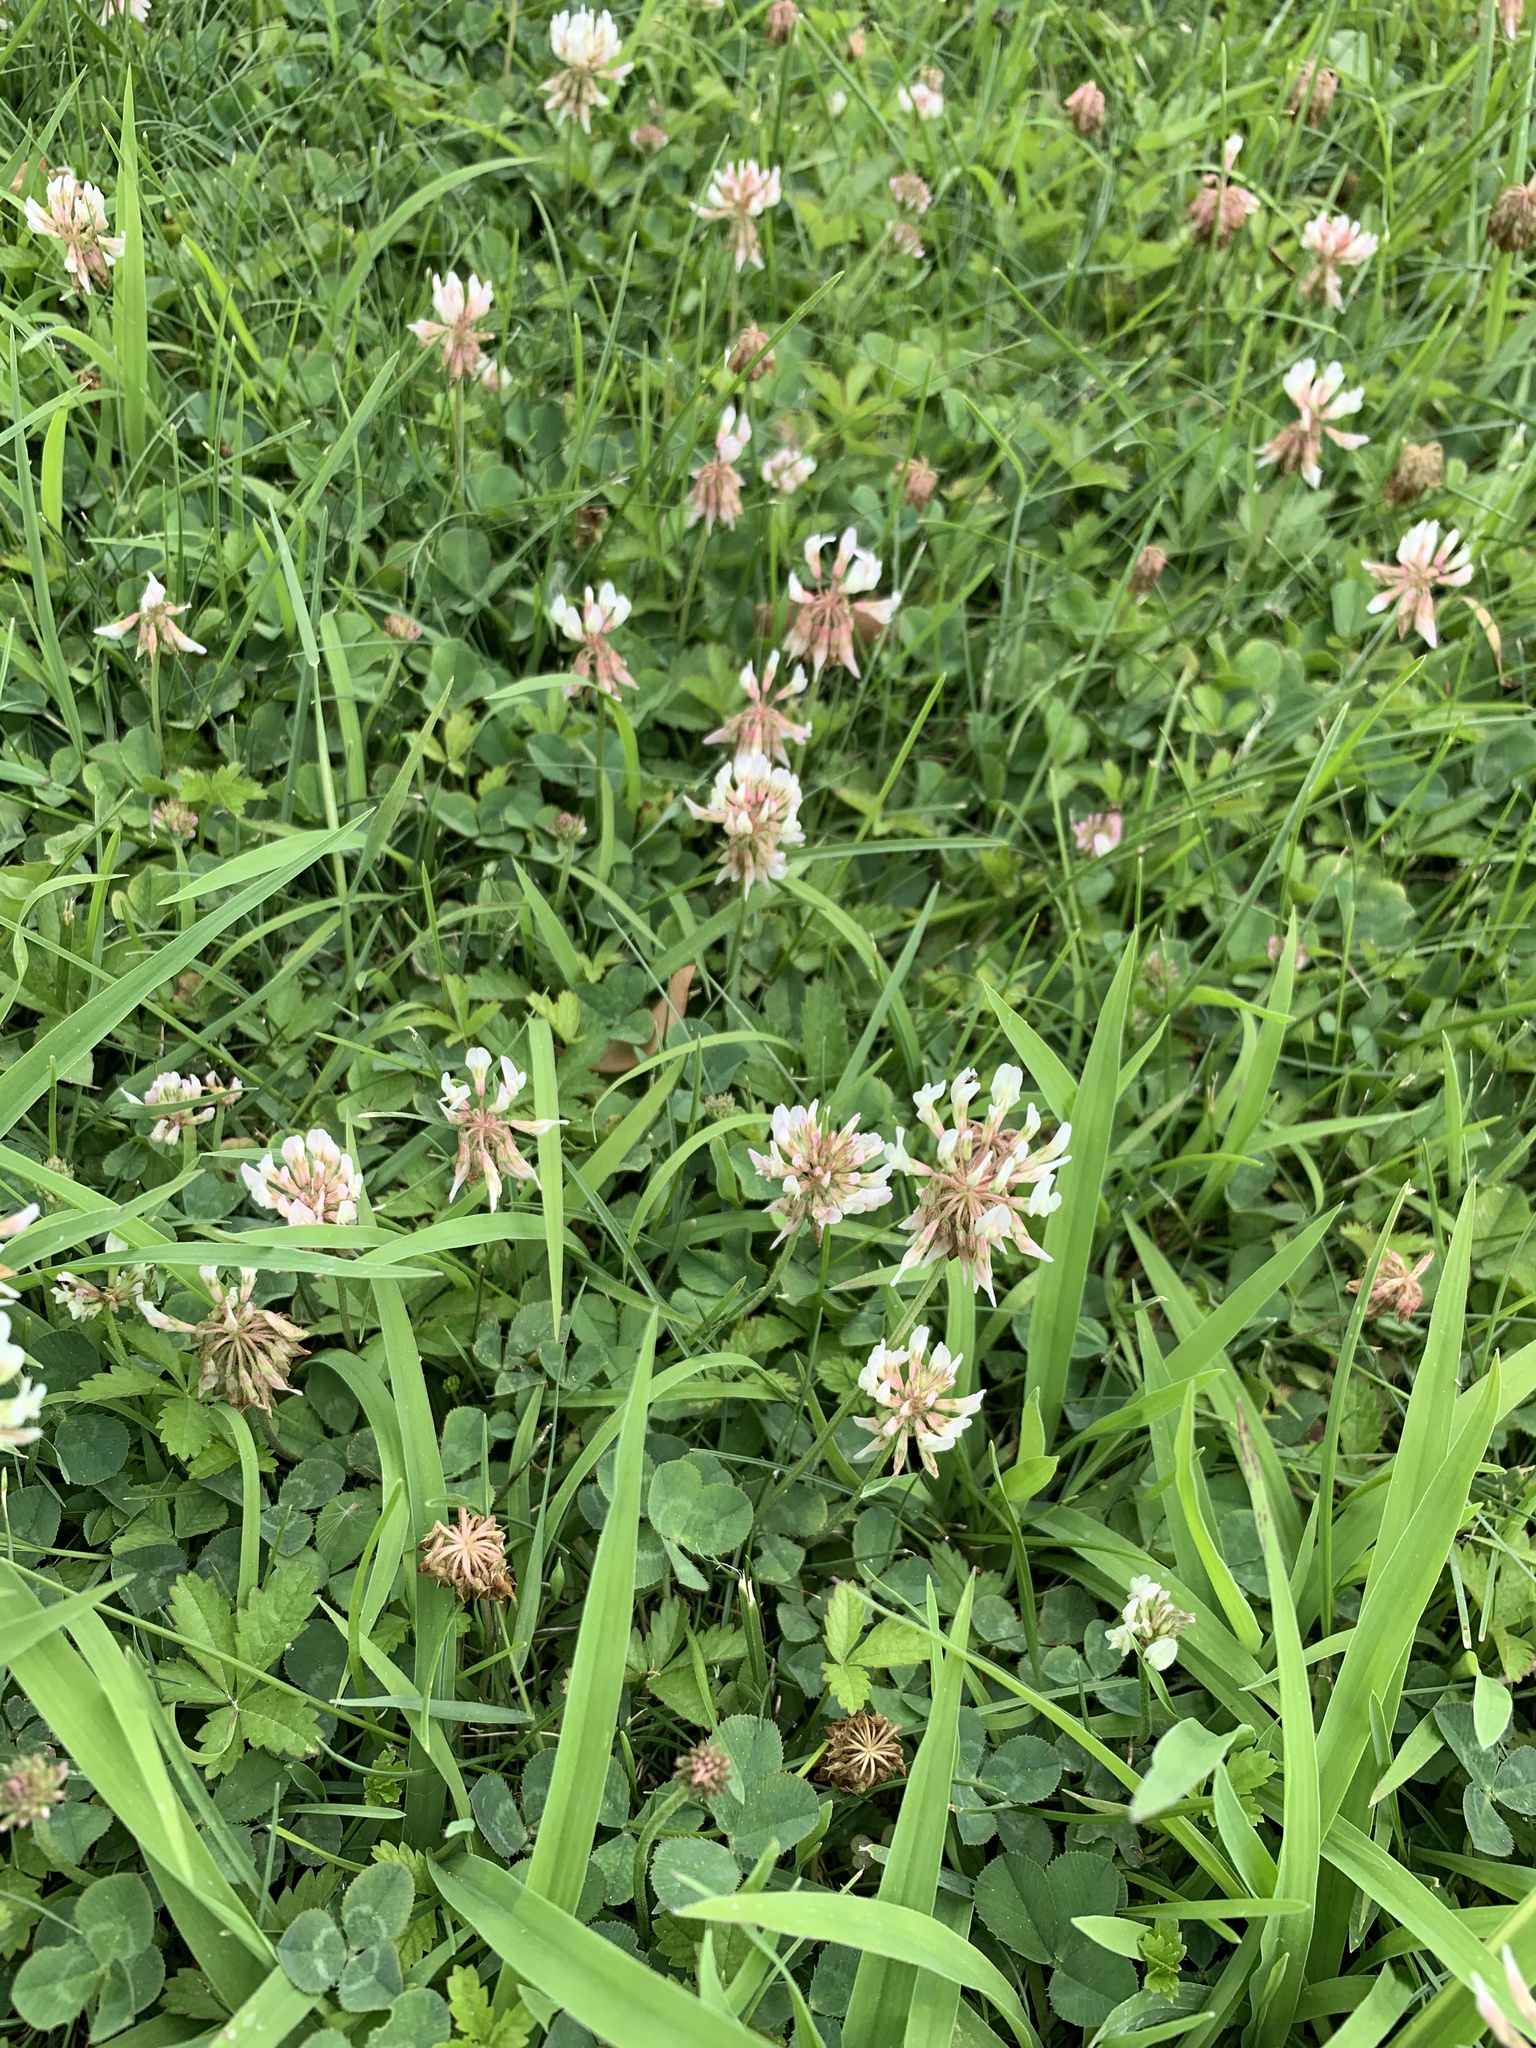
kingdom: Plantae
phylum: Tracheophyta
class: Magnoliopsida
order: Fabales
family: Fabaceae
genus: Trifolium
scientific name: Trifolium repens
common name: White clover
